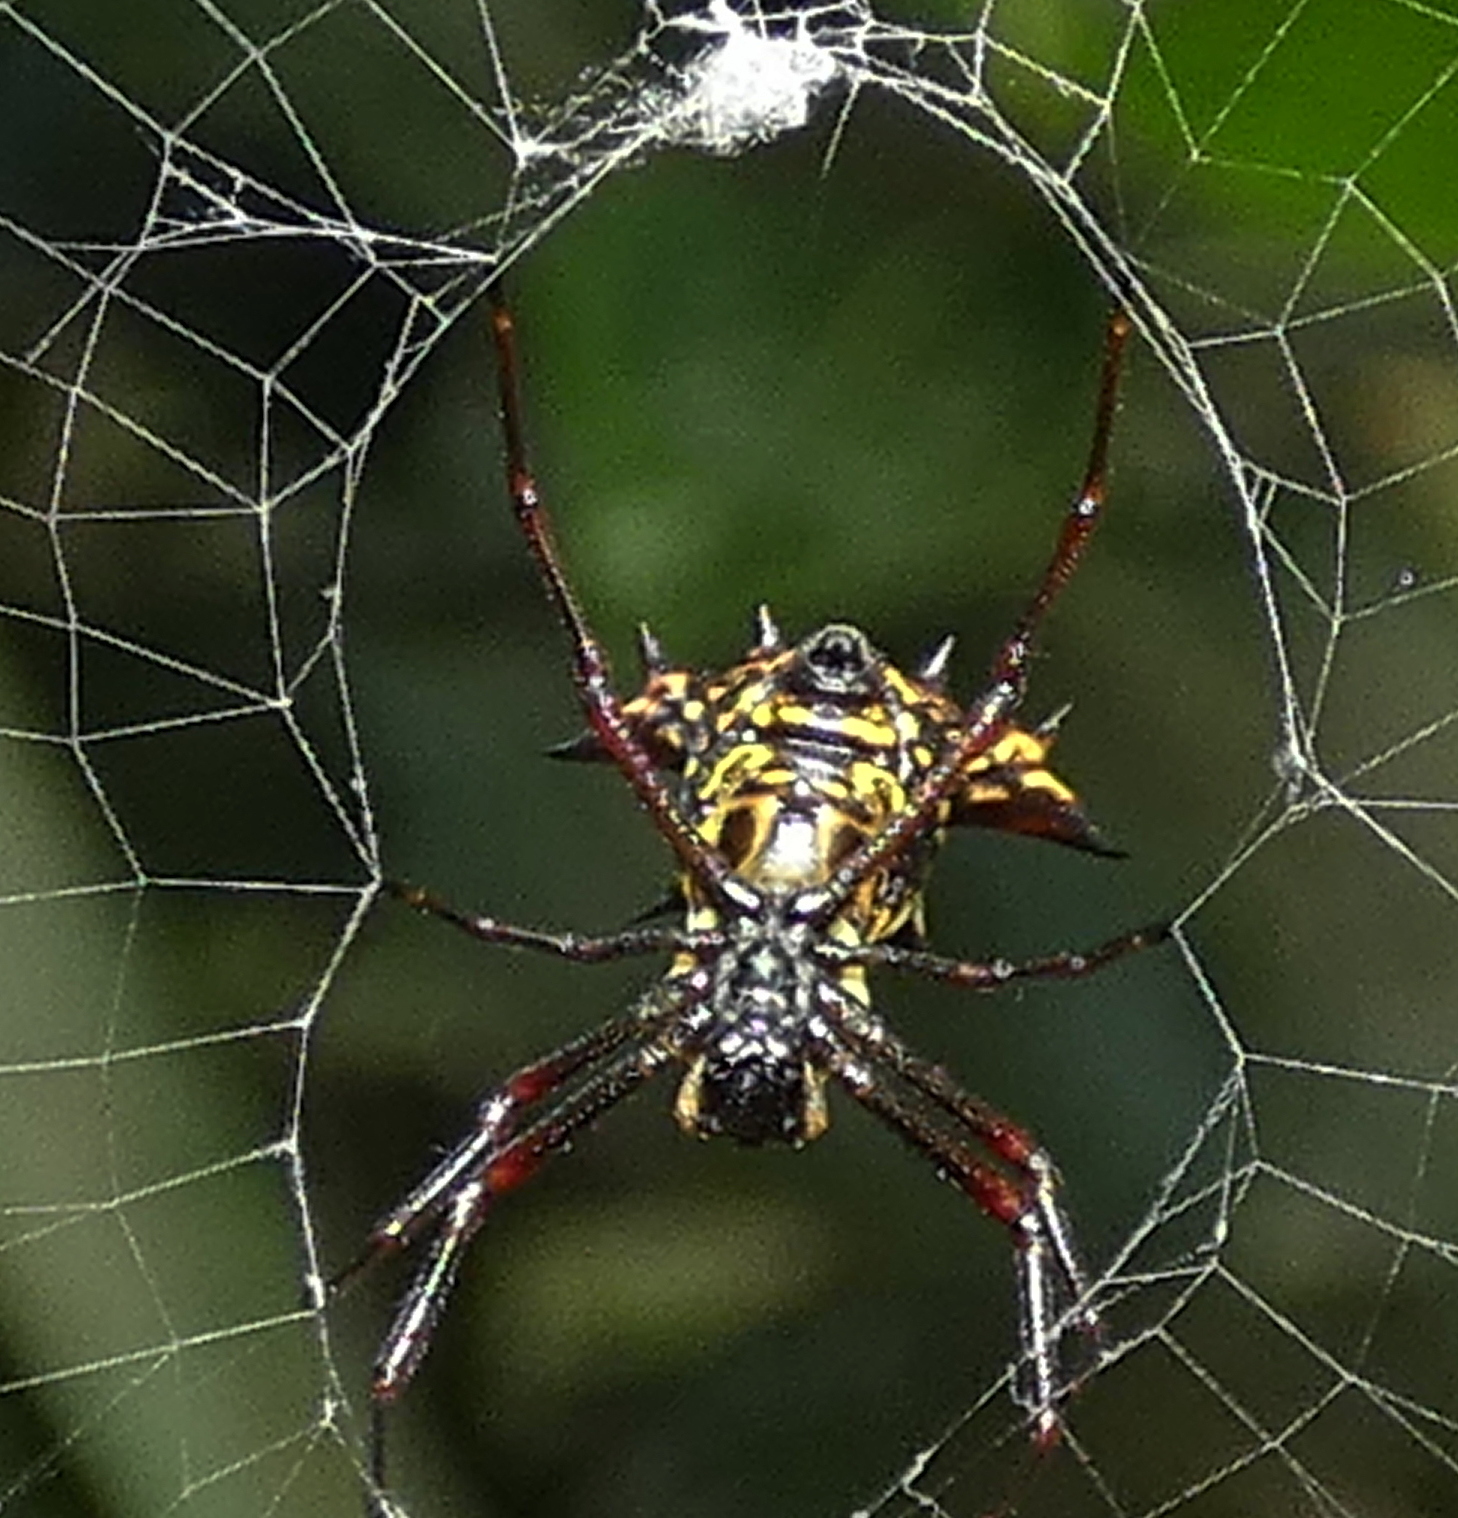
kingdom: Animalia
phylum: Arthropoda
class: Arachnida
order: Araneae
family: Araneidae
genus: Micrathena
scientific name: Micrathena fissispina
